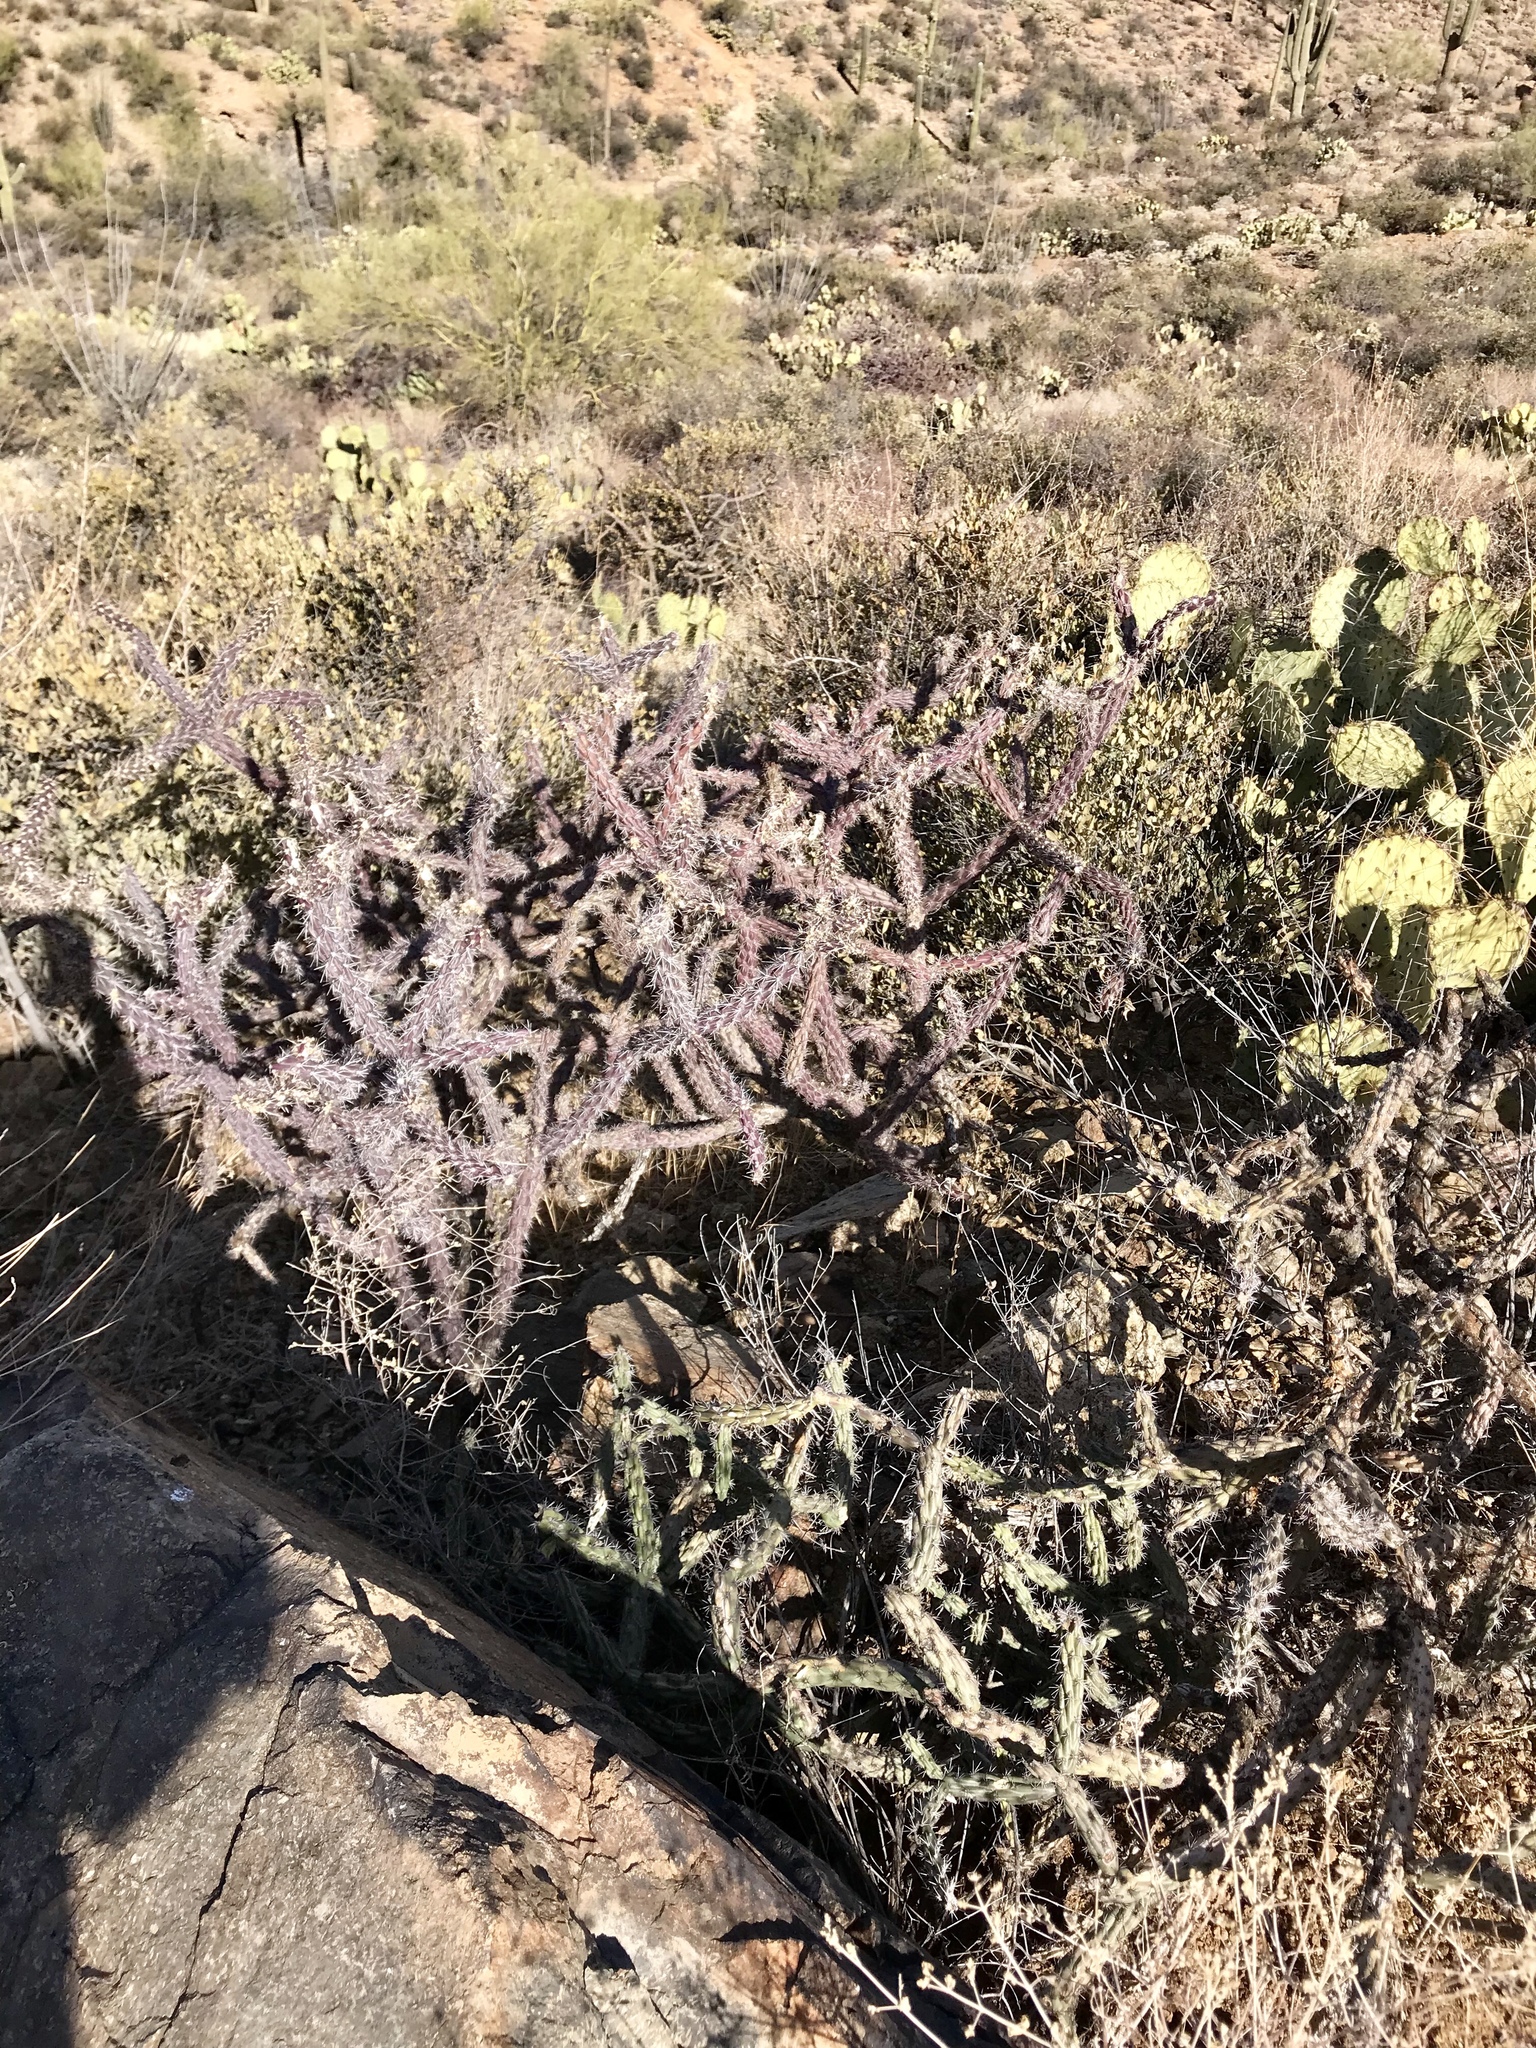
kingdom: Plantae
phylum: Tracheophyta
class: Magnoliopsida
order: Caryophyllales
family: Cactaceae
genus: Cylindropuntia
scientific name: Cylindropuntia thurberi
